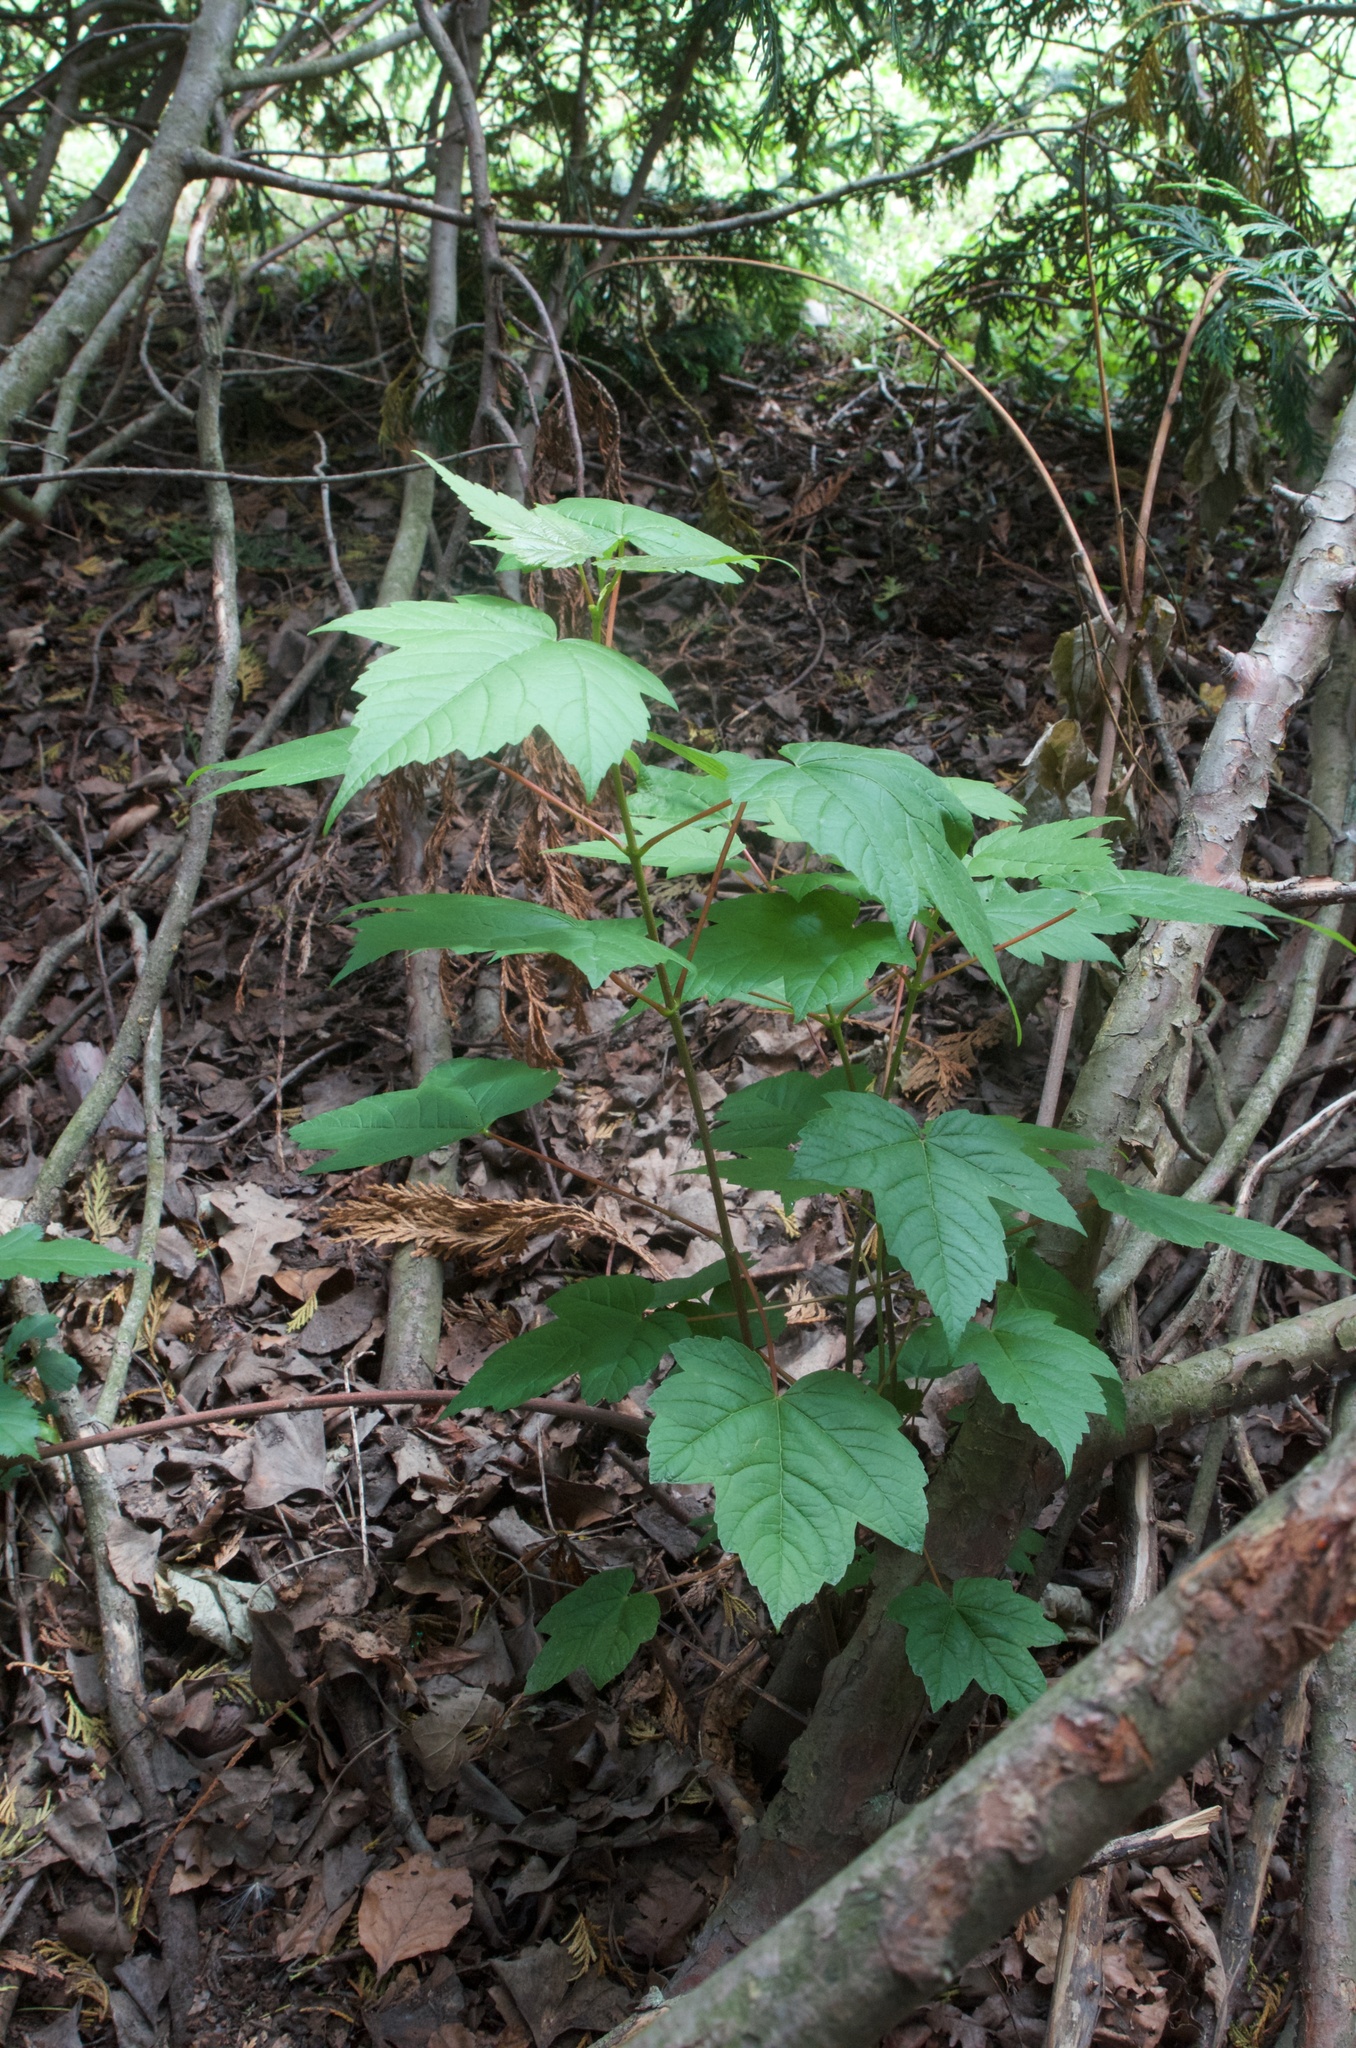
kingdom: Plantae
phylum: Tracheophyta
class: Magnoliopsida
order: Sapindales
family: Sapindaceae
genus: Acer
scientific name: Acer pseudoplatanus
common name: Sycamore
